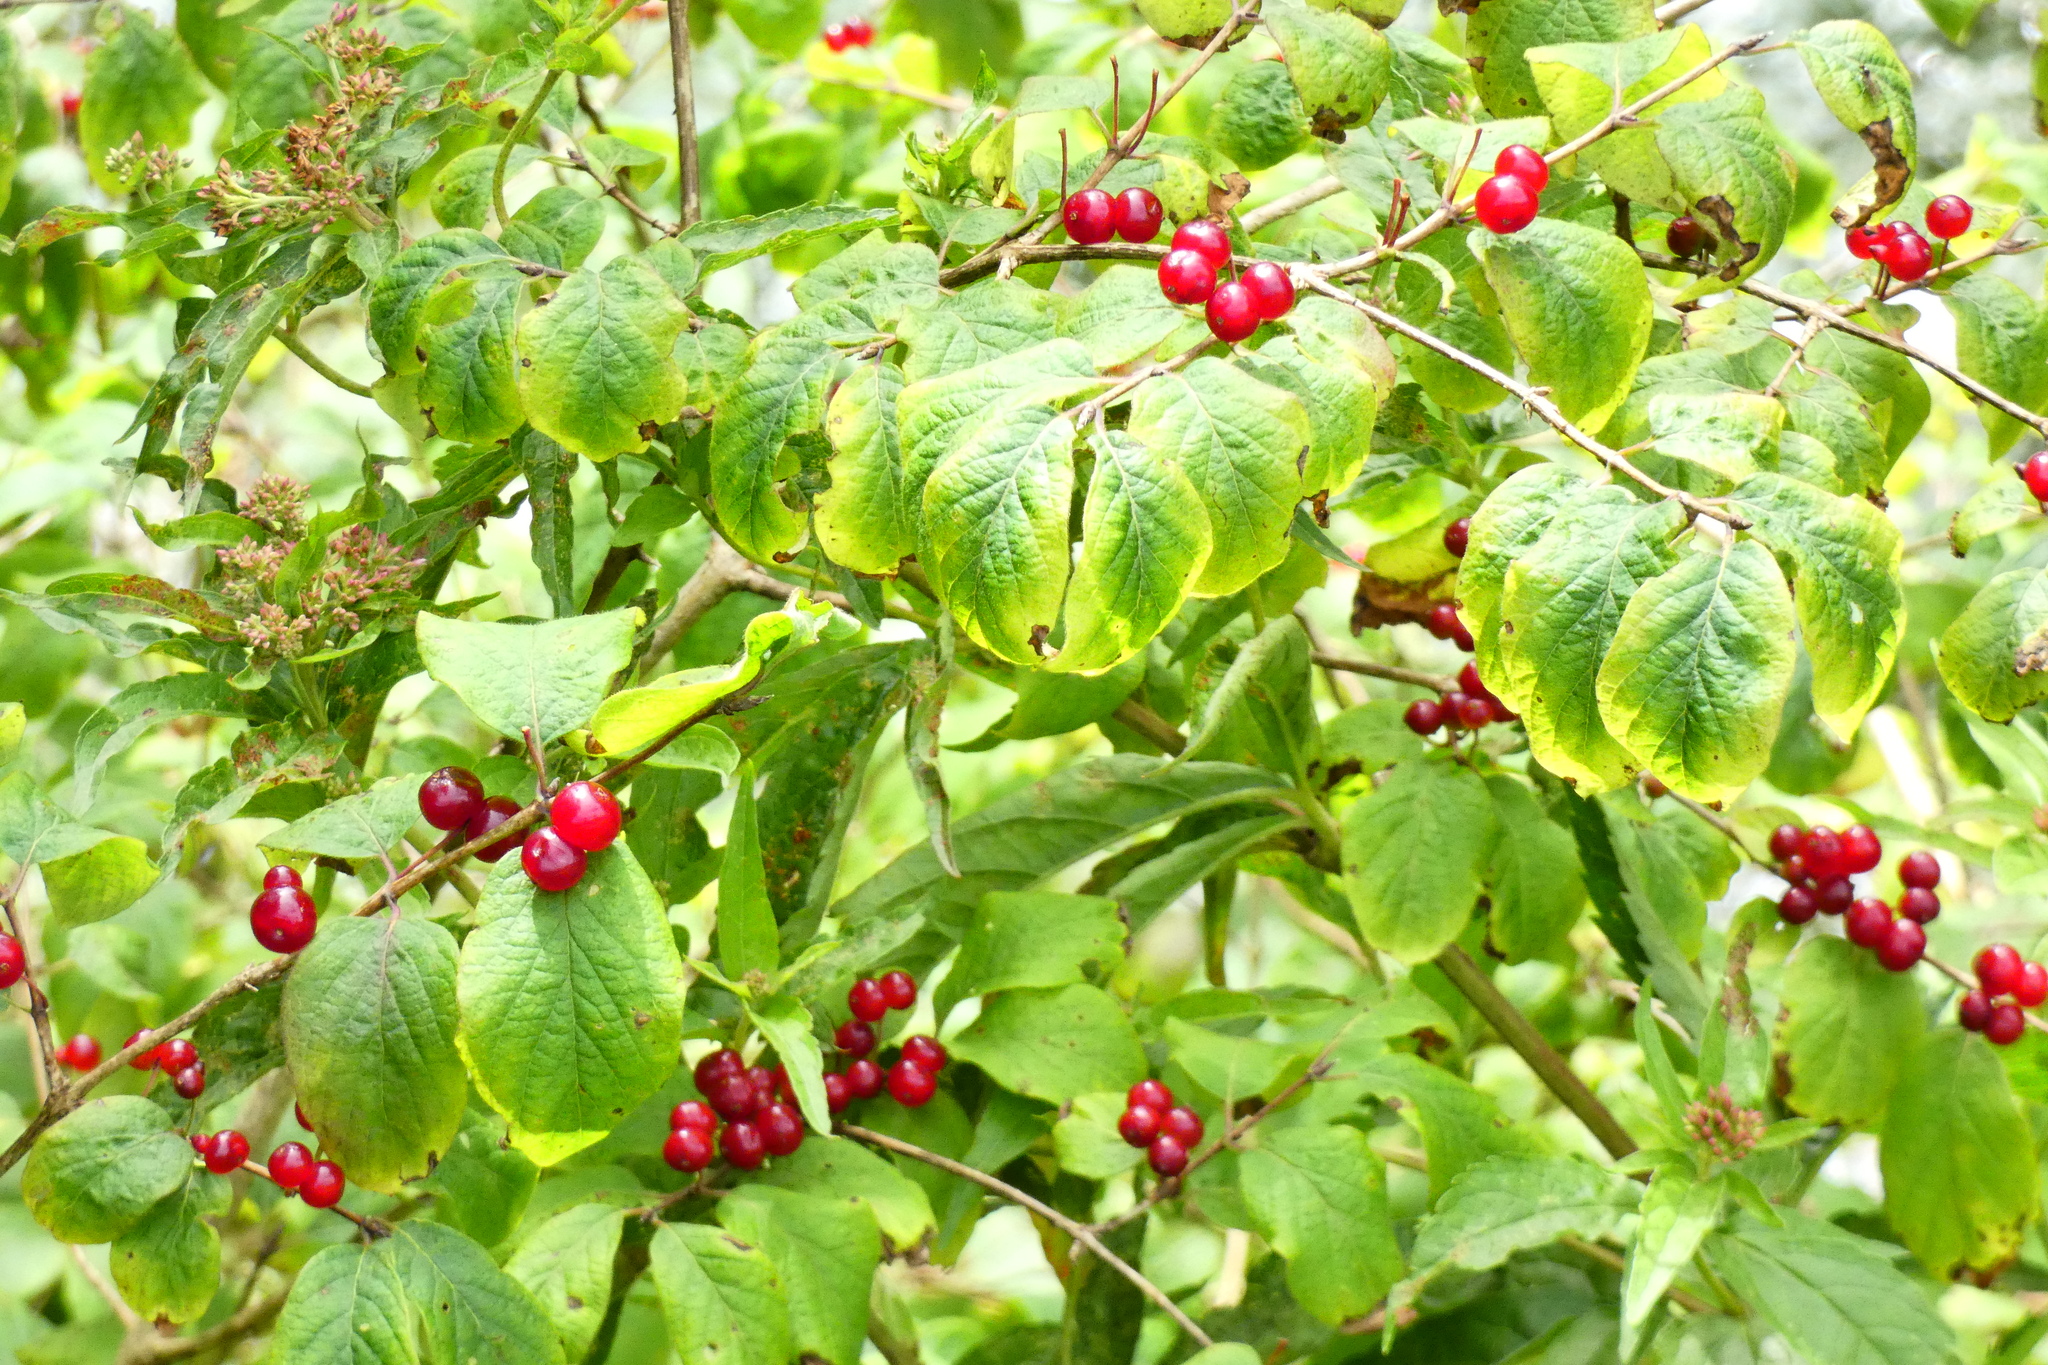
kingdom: Plantae
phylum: Tracheophyta
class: Magnoliopsida
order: Dipsacales
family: Caprifoliaceae
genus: Lonicera
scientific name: Lonicera xylosteum
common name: Fly honeysuckle
